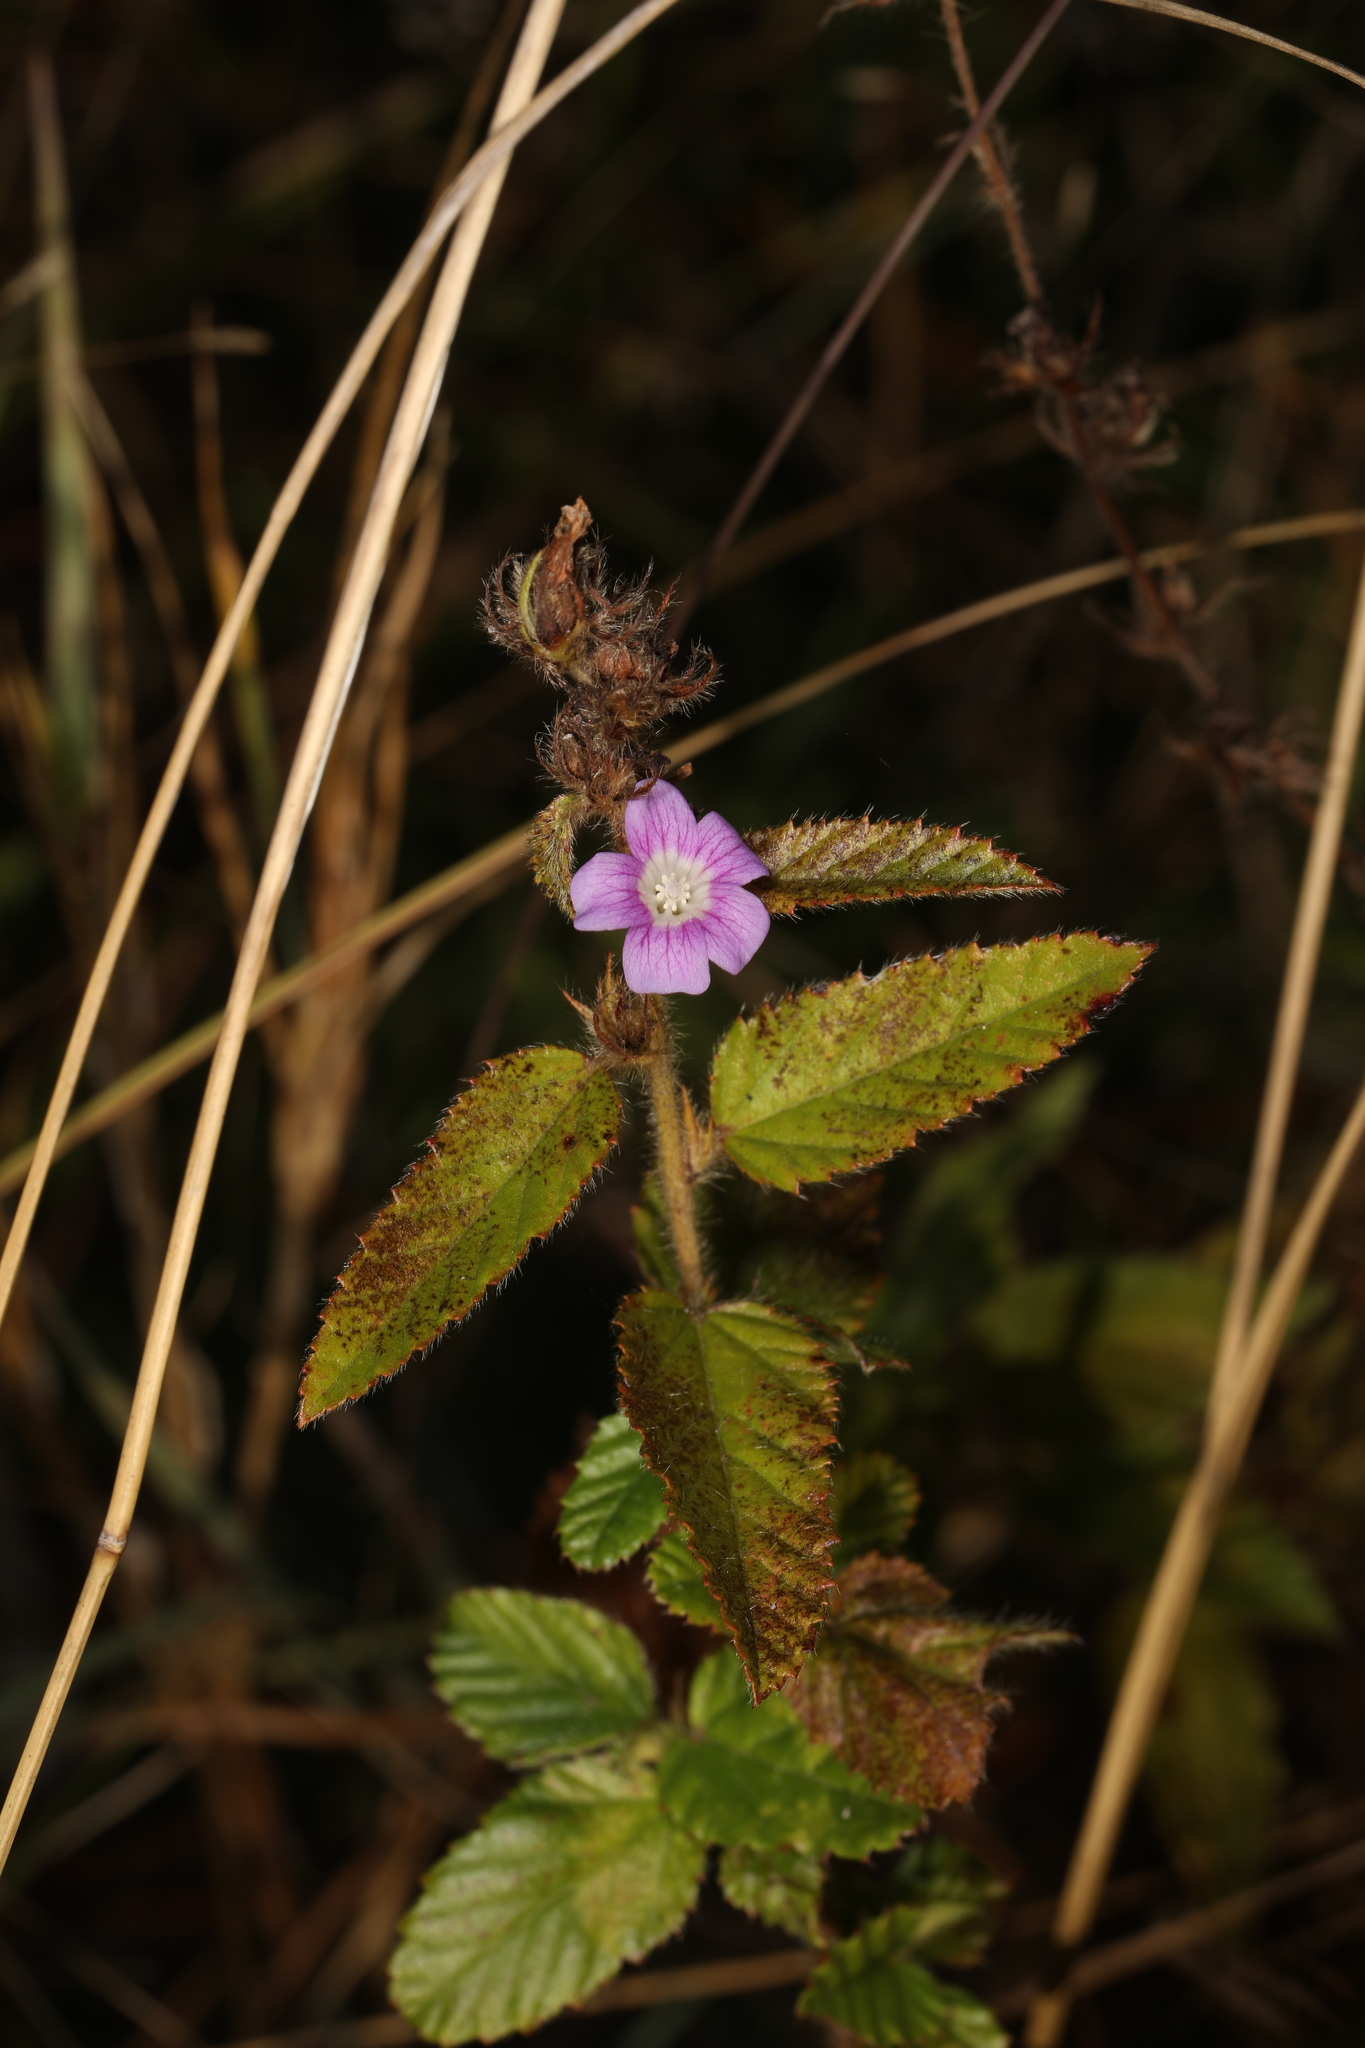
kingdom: Plantae
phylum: Tracheophyta
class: Magnoliopsida
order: Malvales
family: Malvaceae
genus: Melochia
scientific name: Melochia spicata
